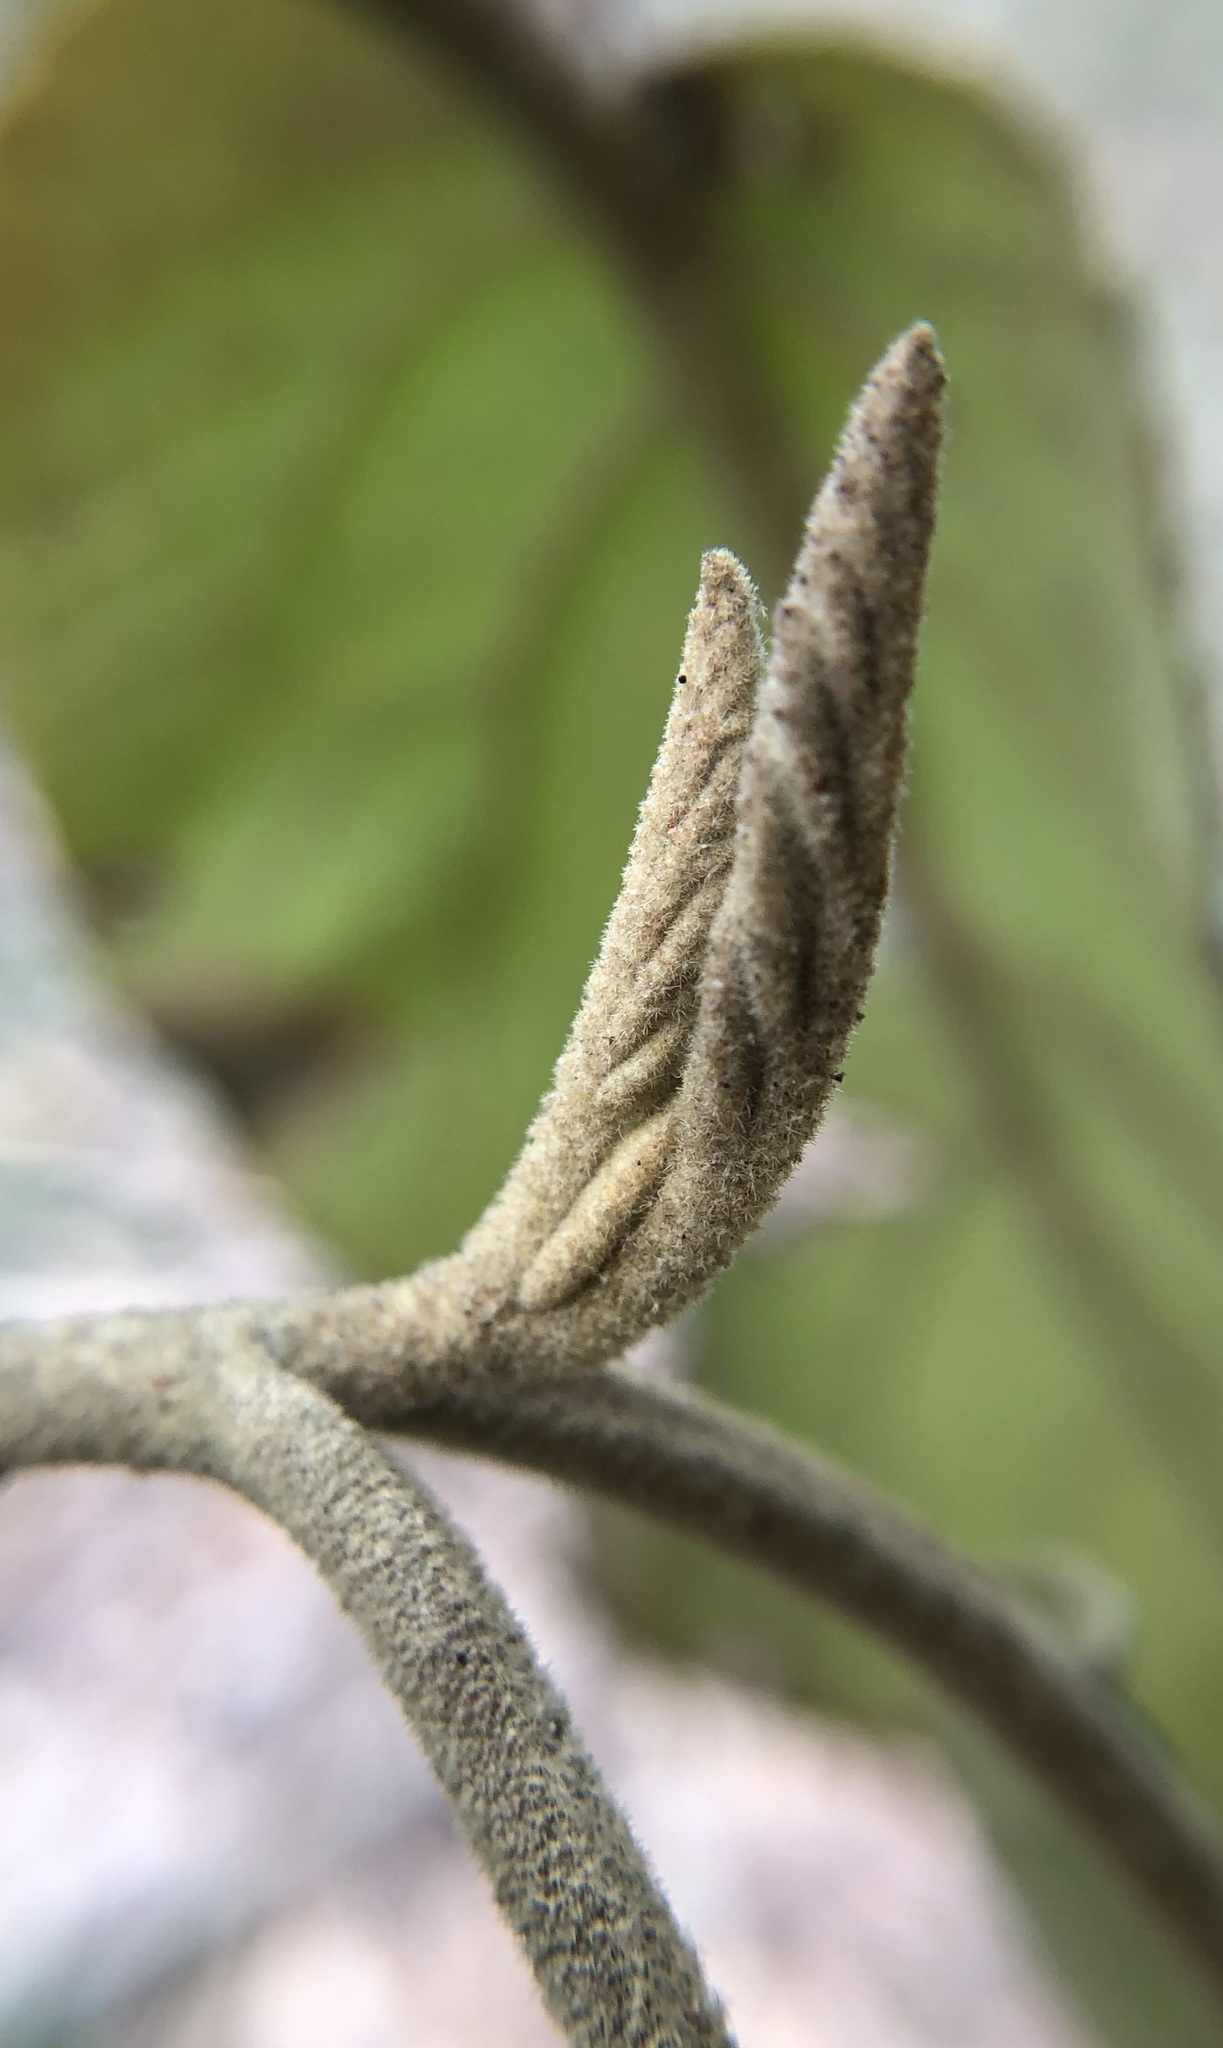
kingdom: Plantae
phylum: Tracheophyta
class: Magnoliopsida
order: Dipsacales
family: Viburnaceae
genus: Viburnum
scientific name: Viburnum rhytidophyllum
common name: Wrinkled viburnum
